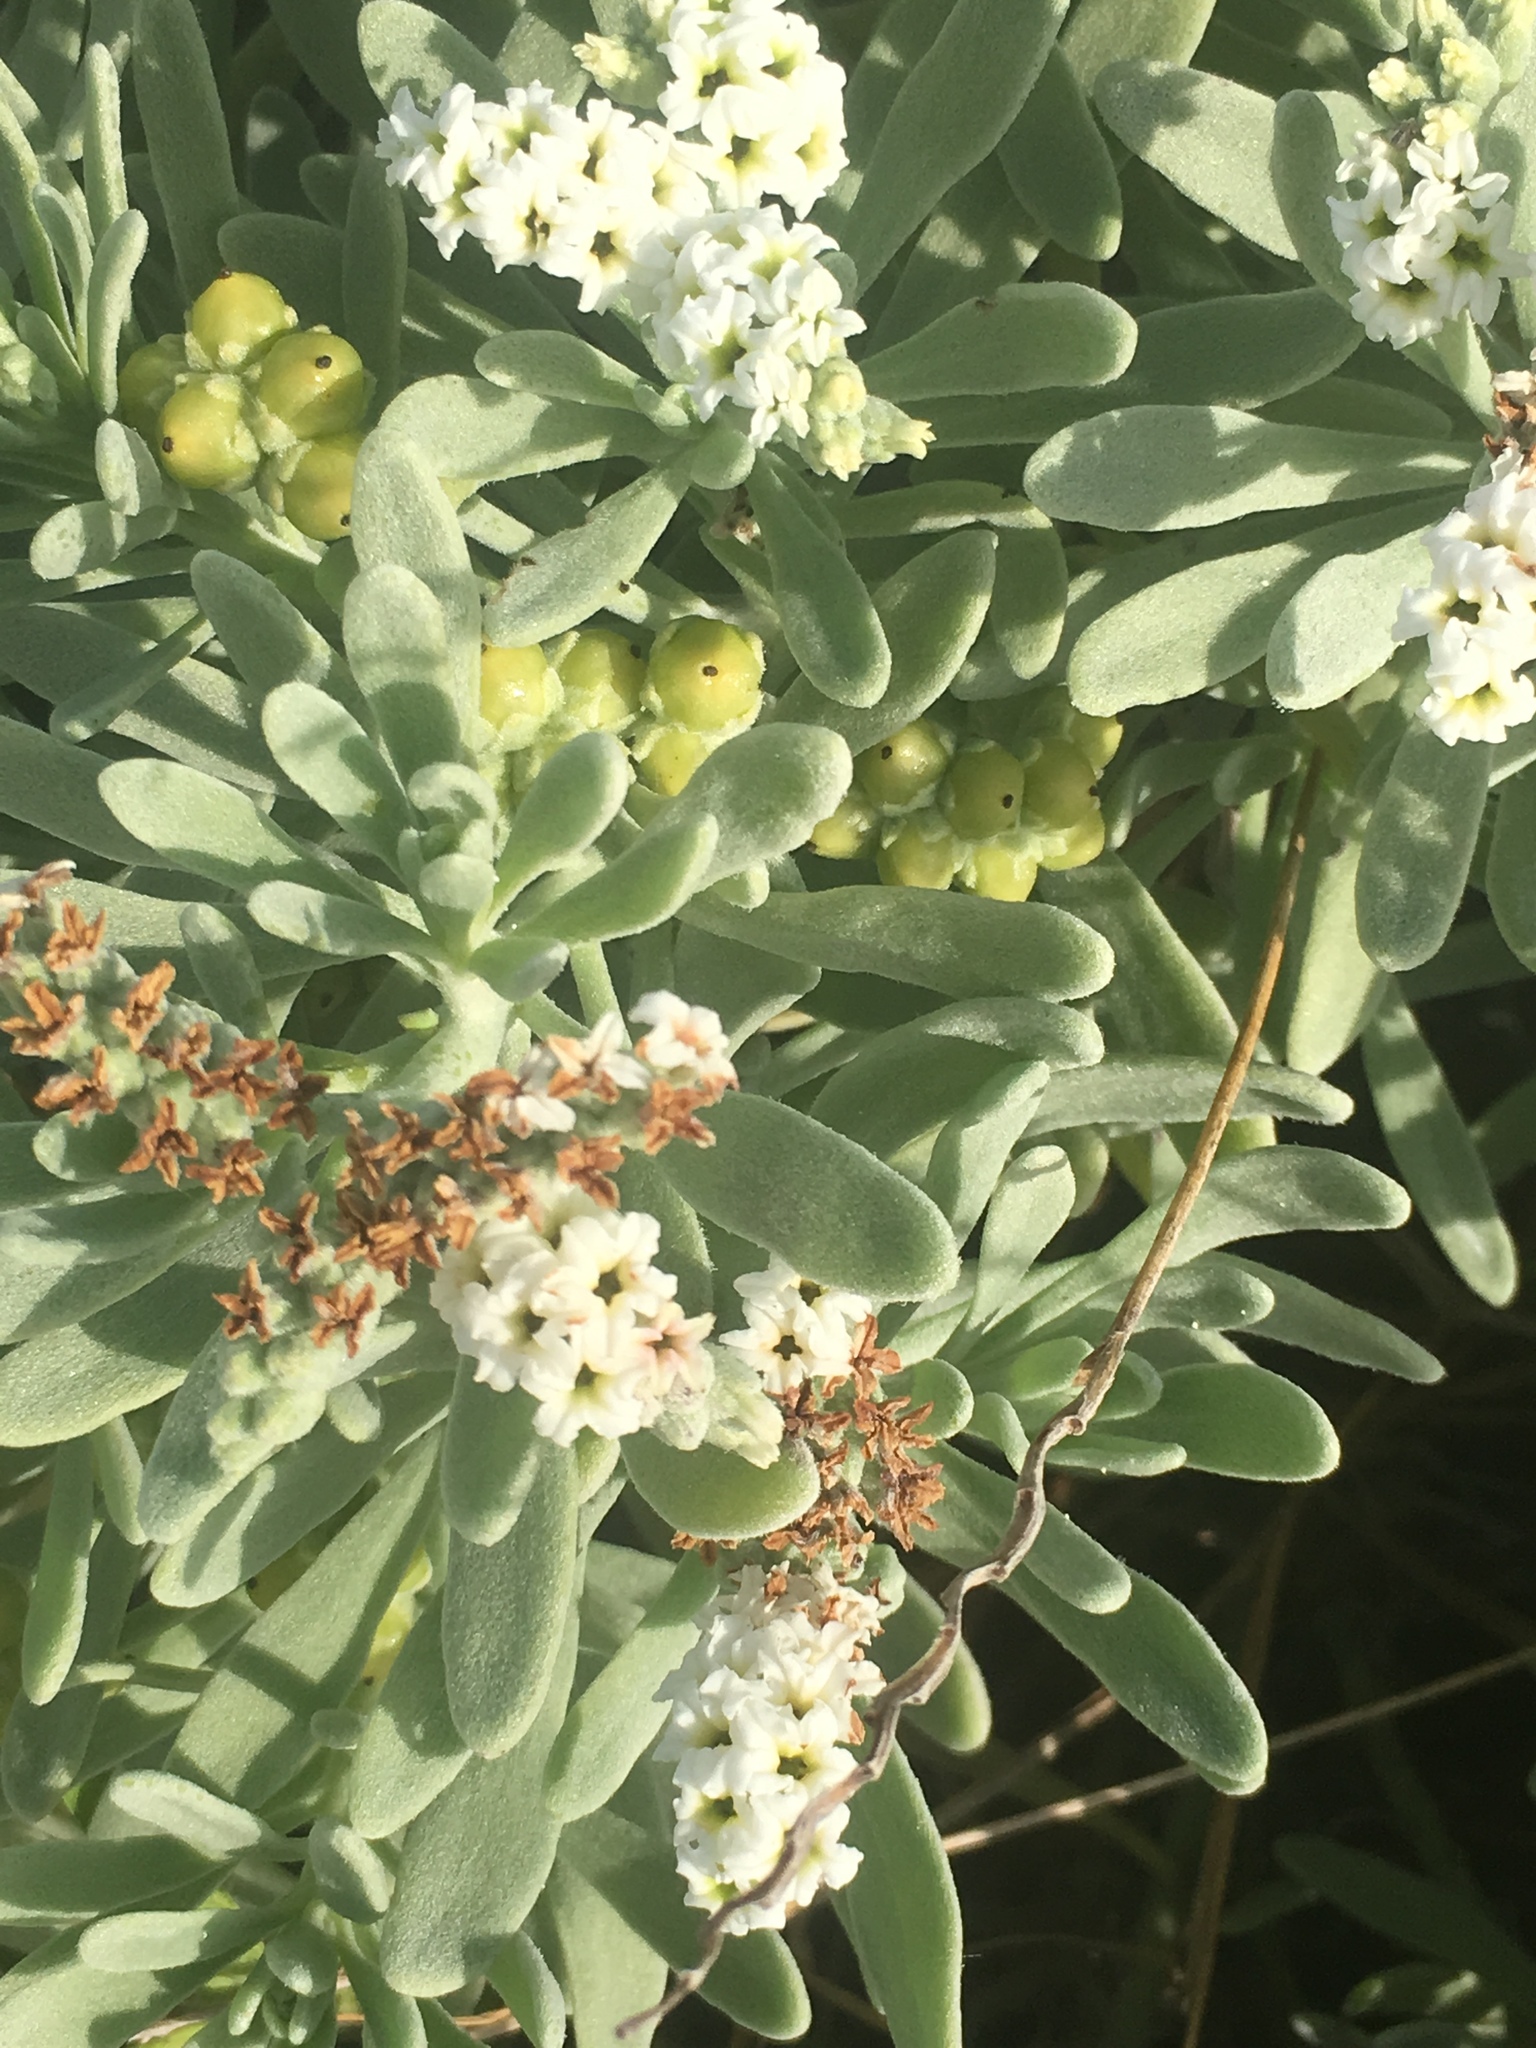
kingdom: Plantae
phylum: Tracheophyta
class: Magnoliopsida
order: Boraginales
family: Heliotropiaceae
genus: Tournefortia
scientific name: Tournefortia gnaphalodes
